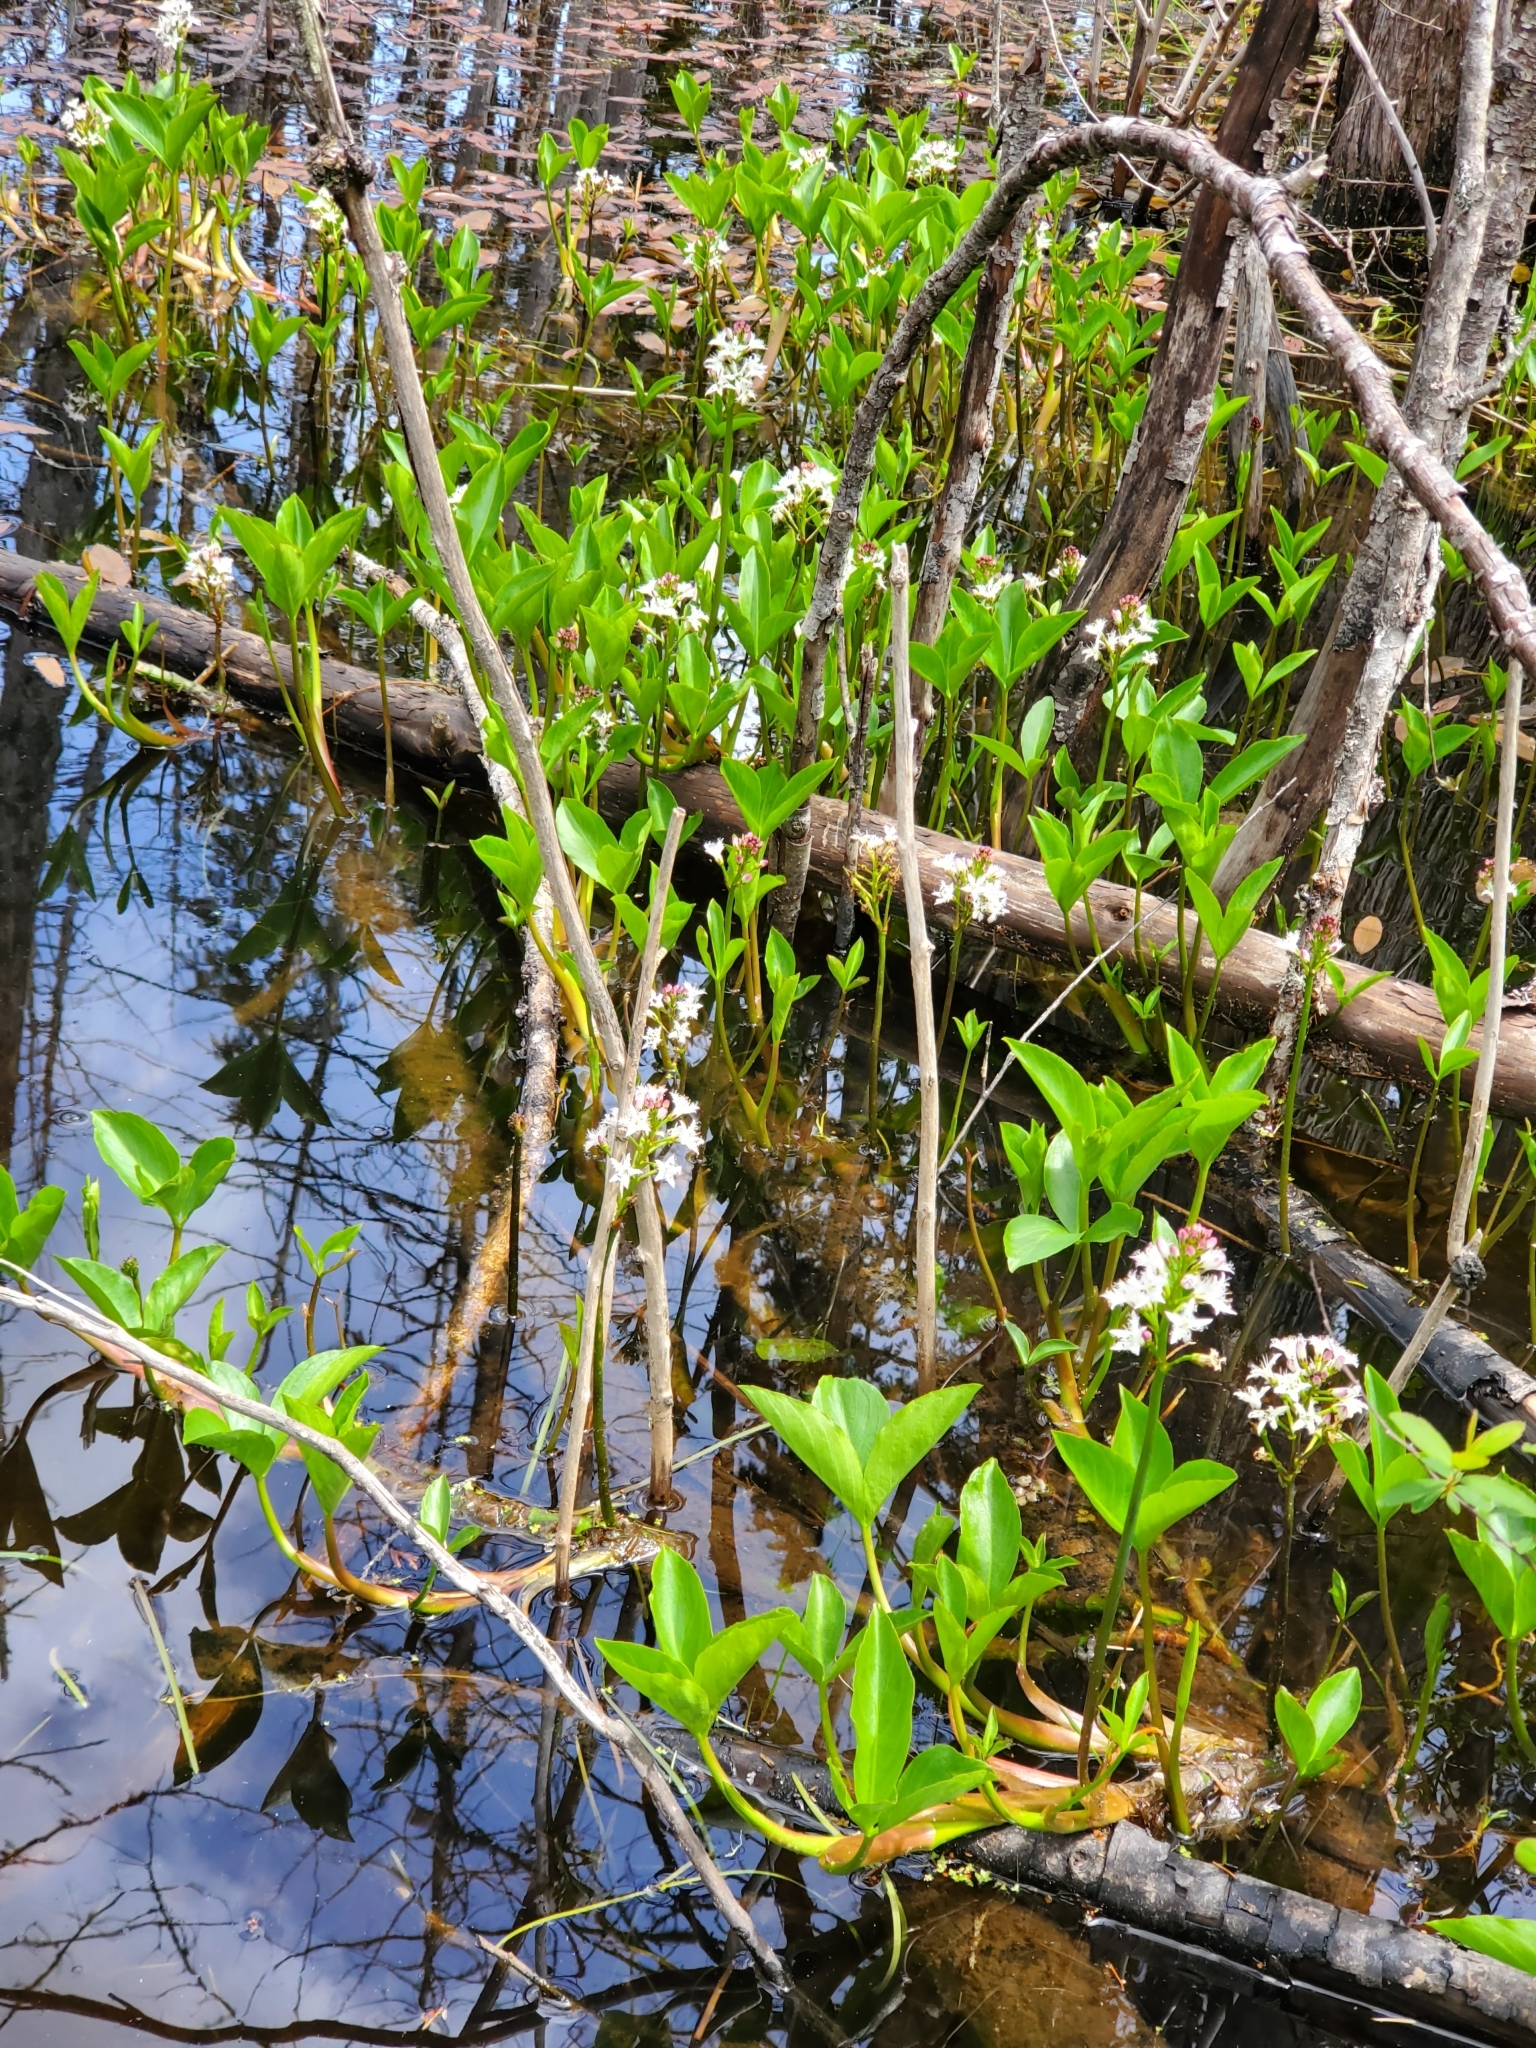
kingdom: Plantae
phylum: Tracheophyta
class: Magnoliopsida
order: Asterales
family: Menyanthaceae
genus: Menyanthes
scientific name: Menyanthes trifoliata
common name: Bogbean
